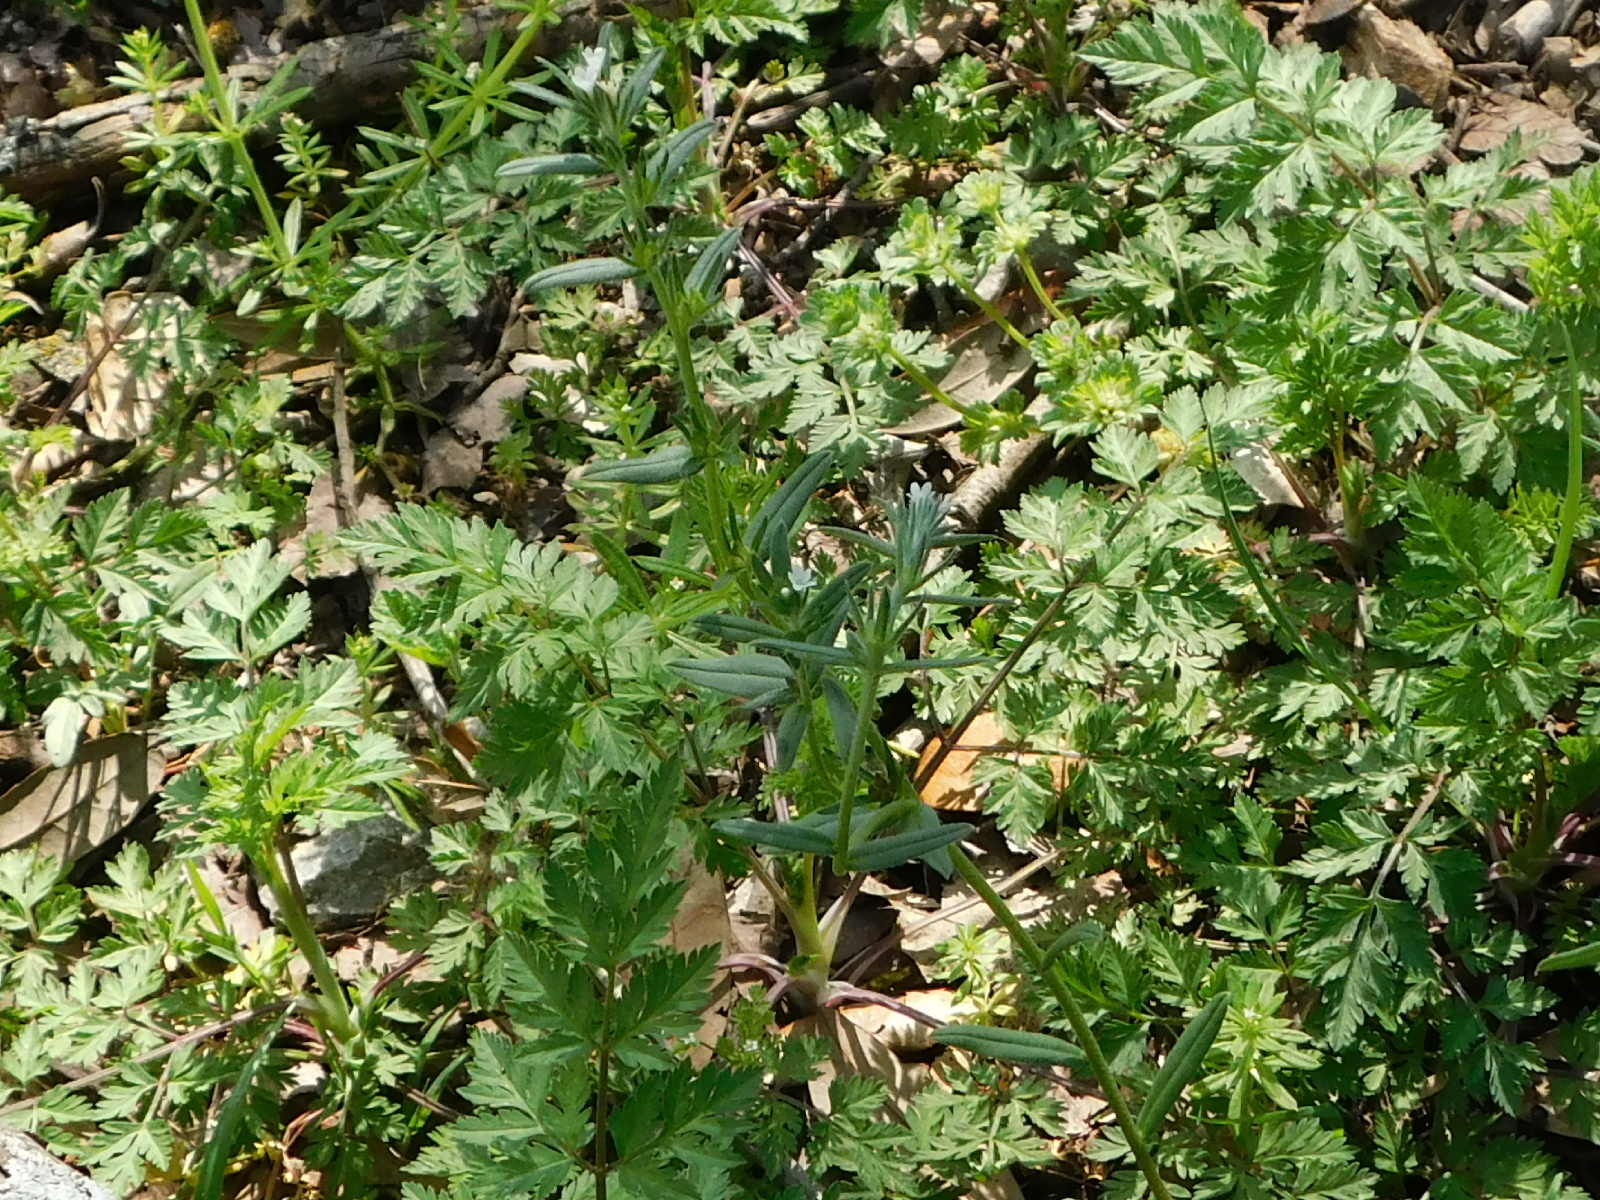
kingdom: Plantae
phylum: Tracheophyta
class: Magnoliopsida
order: Boraginales
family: Boraginaceae
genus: Buglossoides
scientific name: Buglossoides arvensis
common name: Corn gromwell
